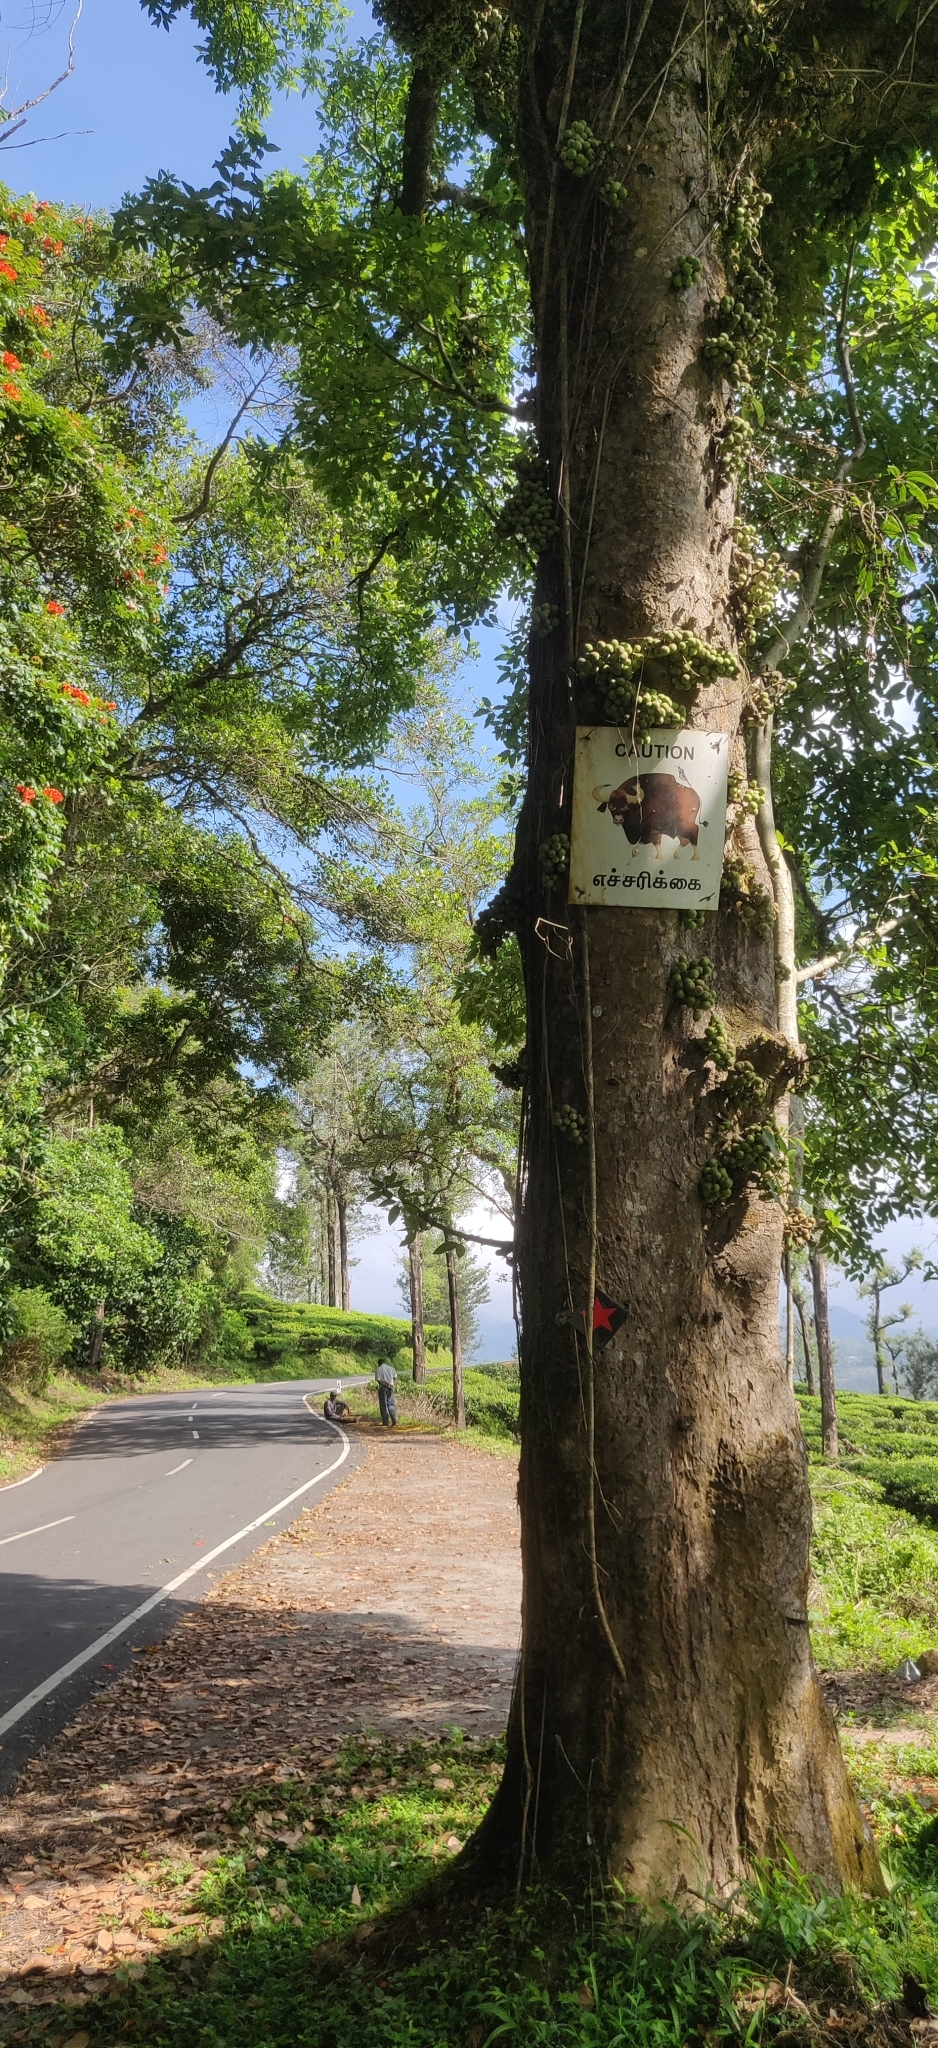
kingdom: Plantae
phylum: Tracheophyta
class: Magnoliopsida
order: Rosales
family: Moraceae
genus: Ficus
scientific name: Ficus racemosa
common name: Cluster fig
